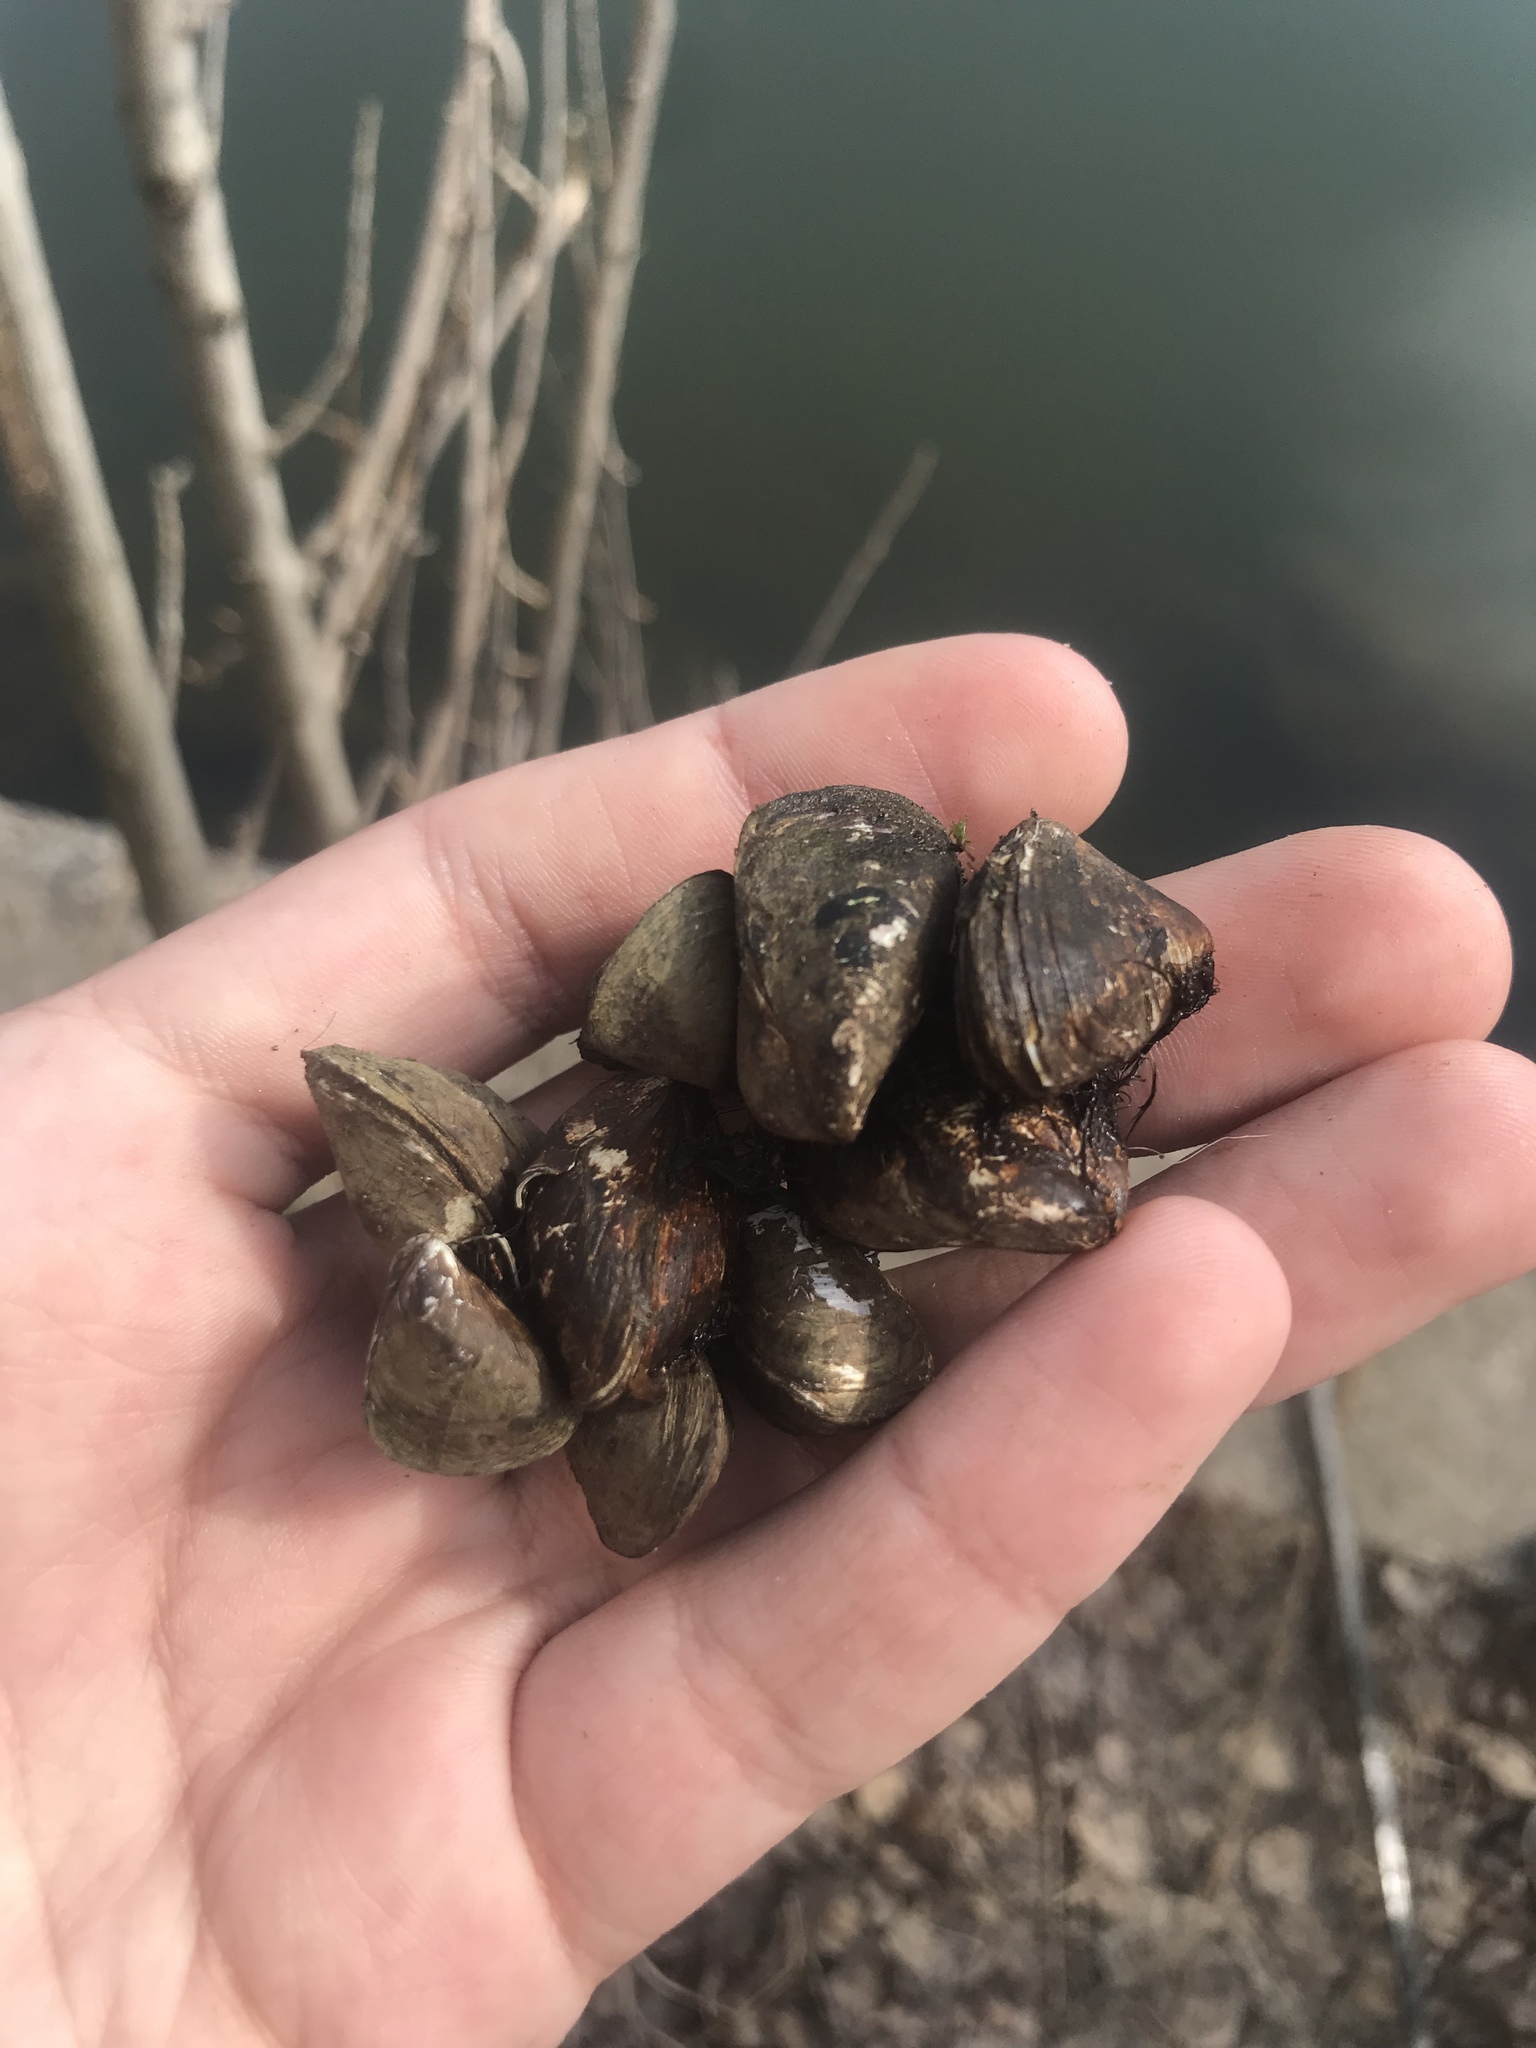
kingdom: Animalia
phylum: Mollusca
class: Bivalvia
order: Myida
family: Dreissenidae
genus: Dreissena
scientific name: Dreissena polymorpha
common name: Zebra mussel
